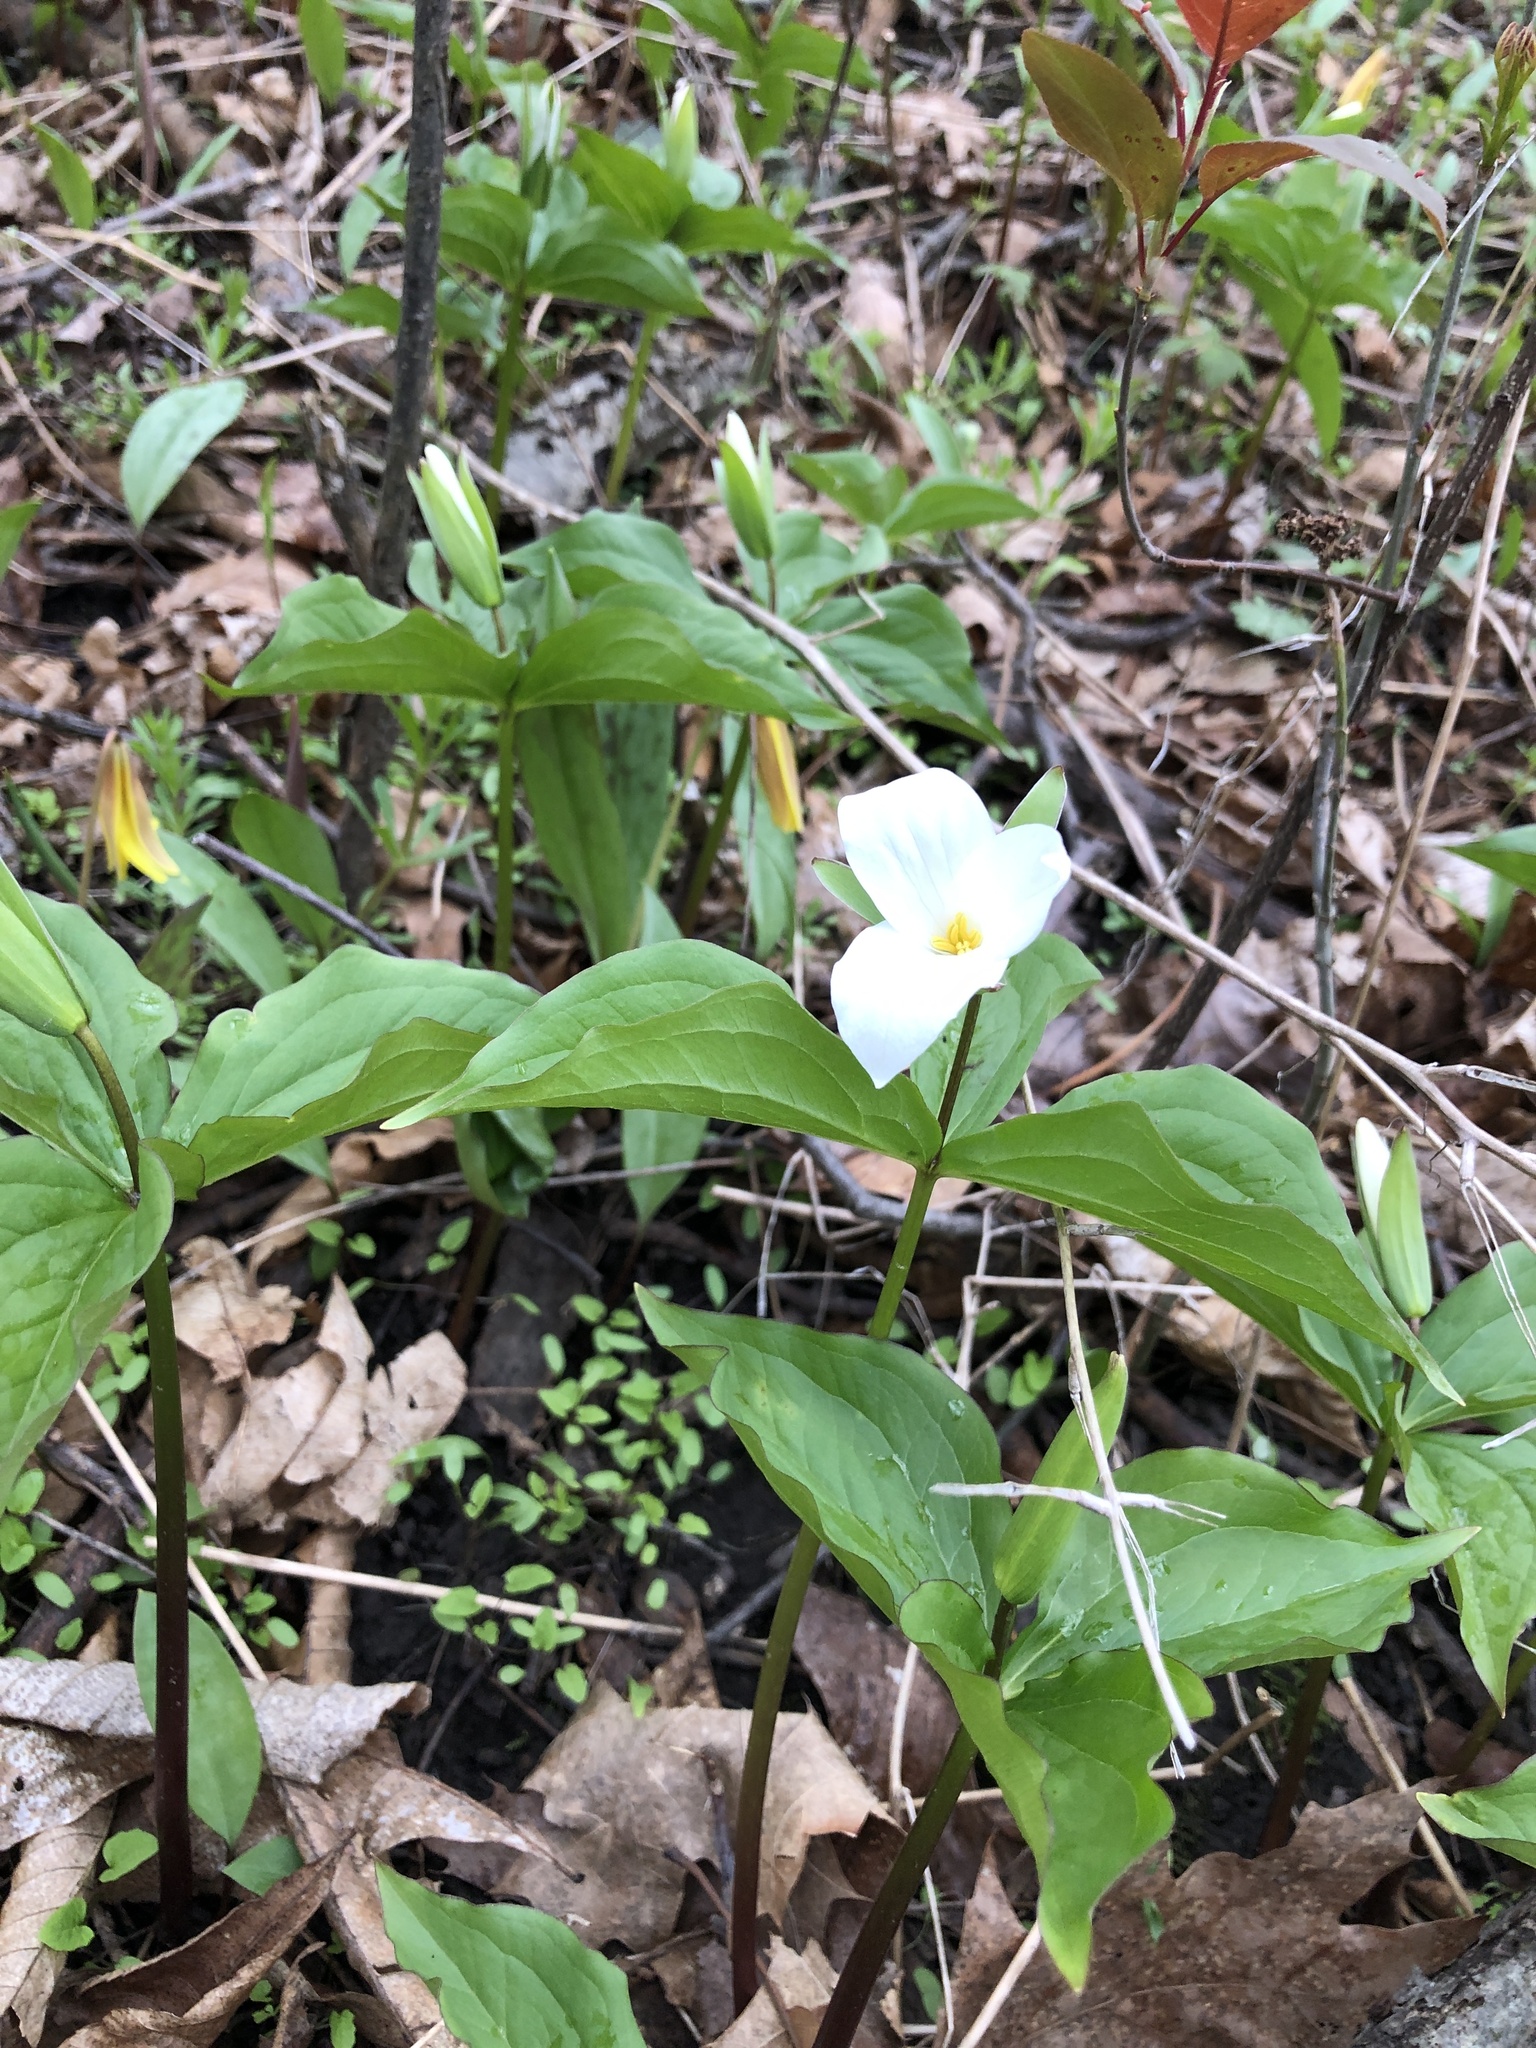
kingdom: Plantae
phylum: Tracheophyta
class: Liliopsida
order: Liliales
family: Melanthiaceae
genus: Trillium
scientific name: Trillium grandiflorum
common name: Great white trillium
